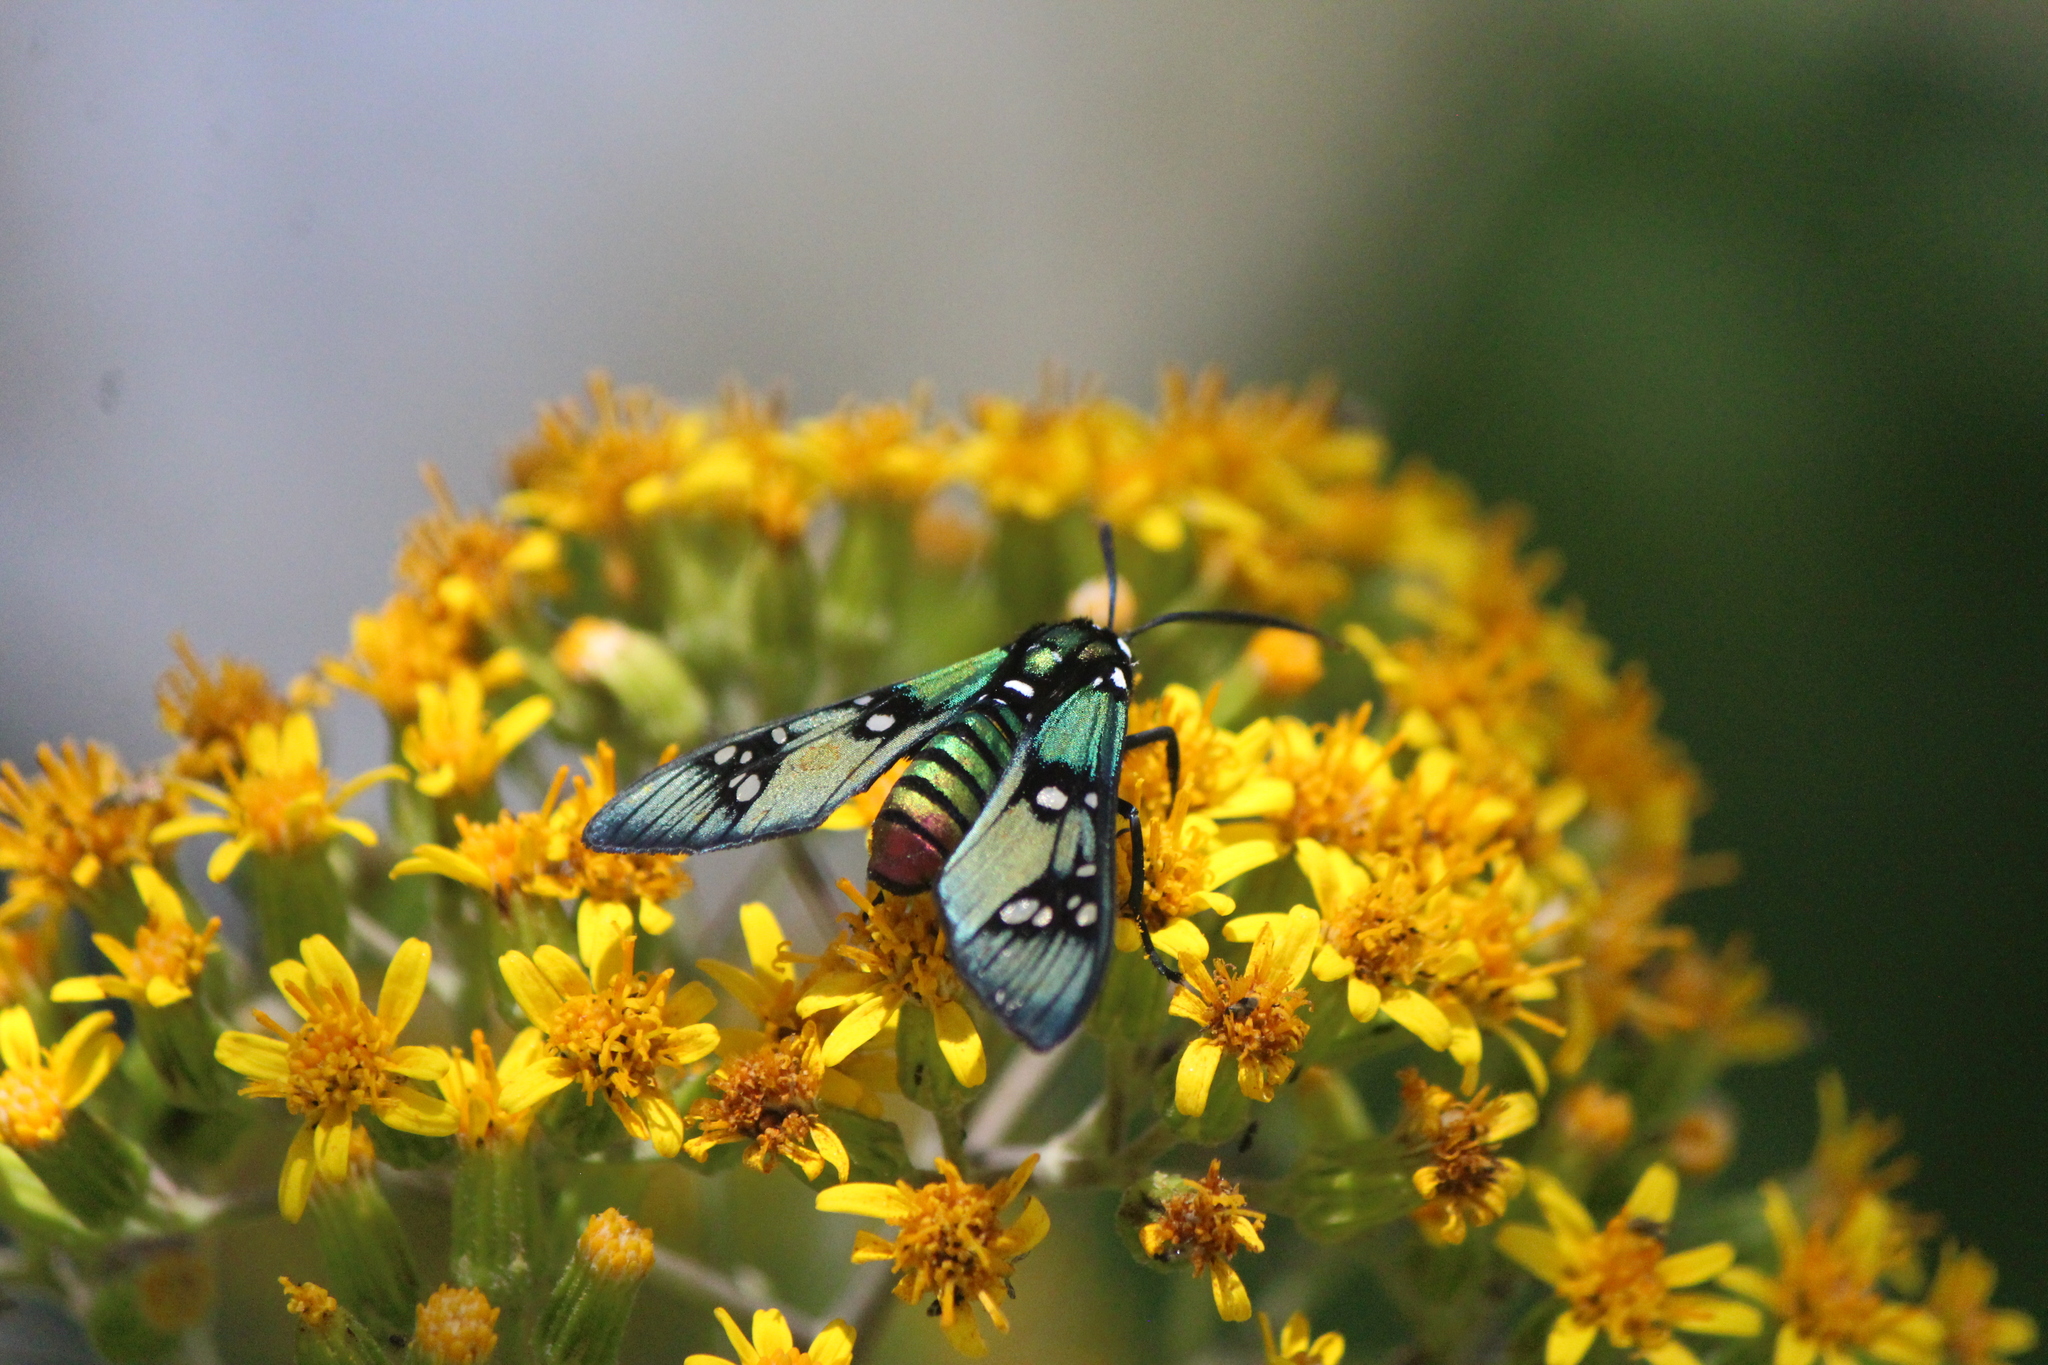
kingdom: Animalia
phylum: Arthropoda
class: Insecta
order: Lepidoptera
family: Erebidae
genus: Chrysocale
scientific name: Chrysocale principalis
